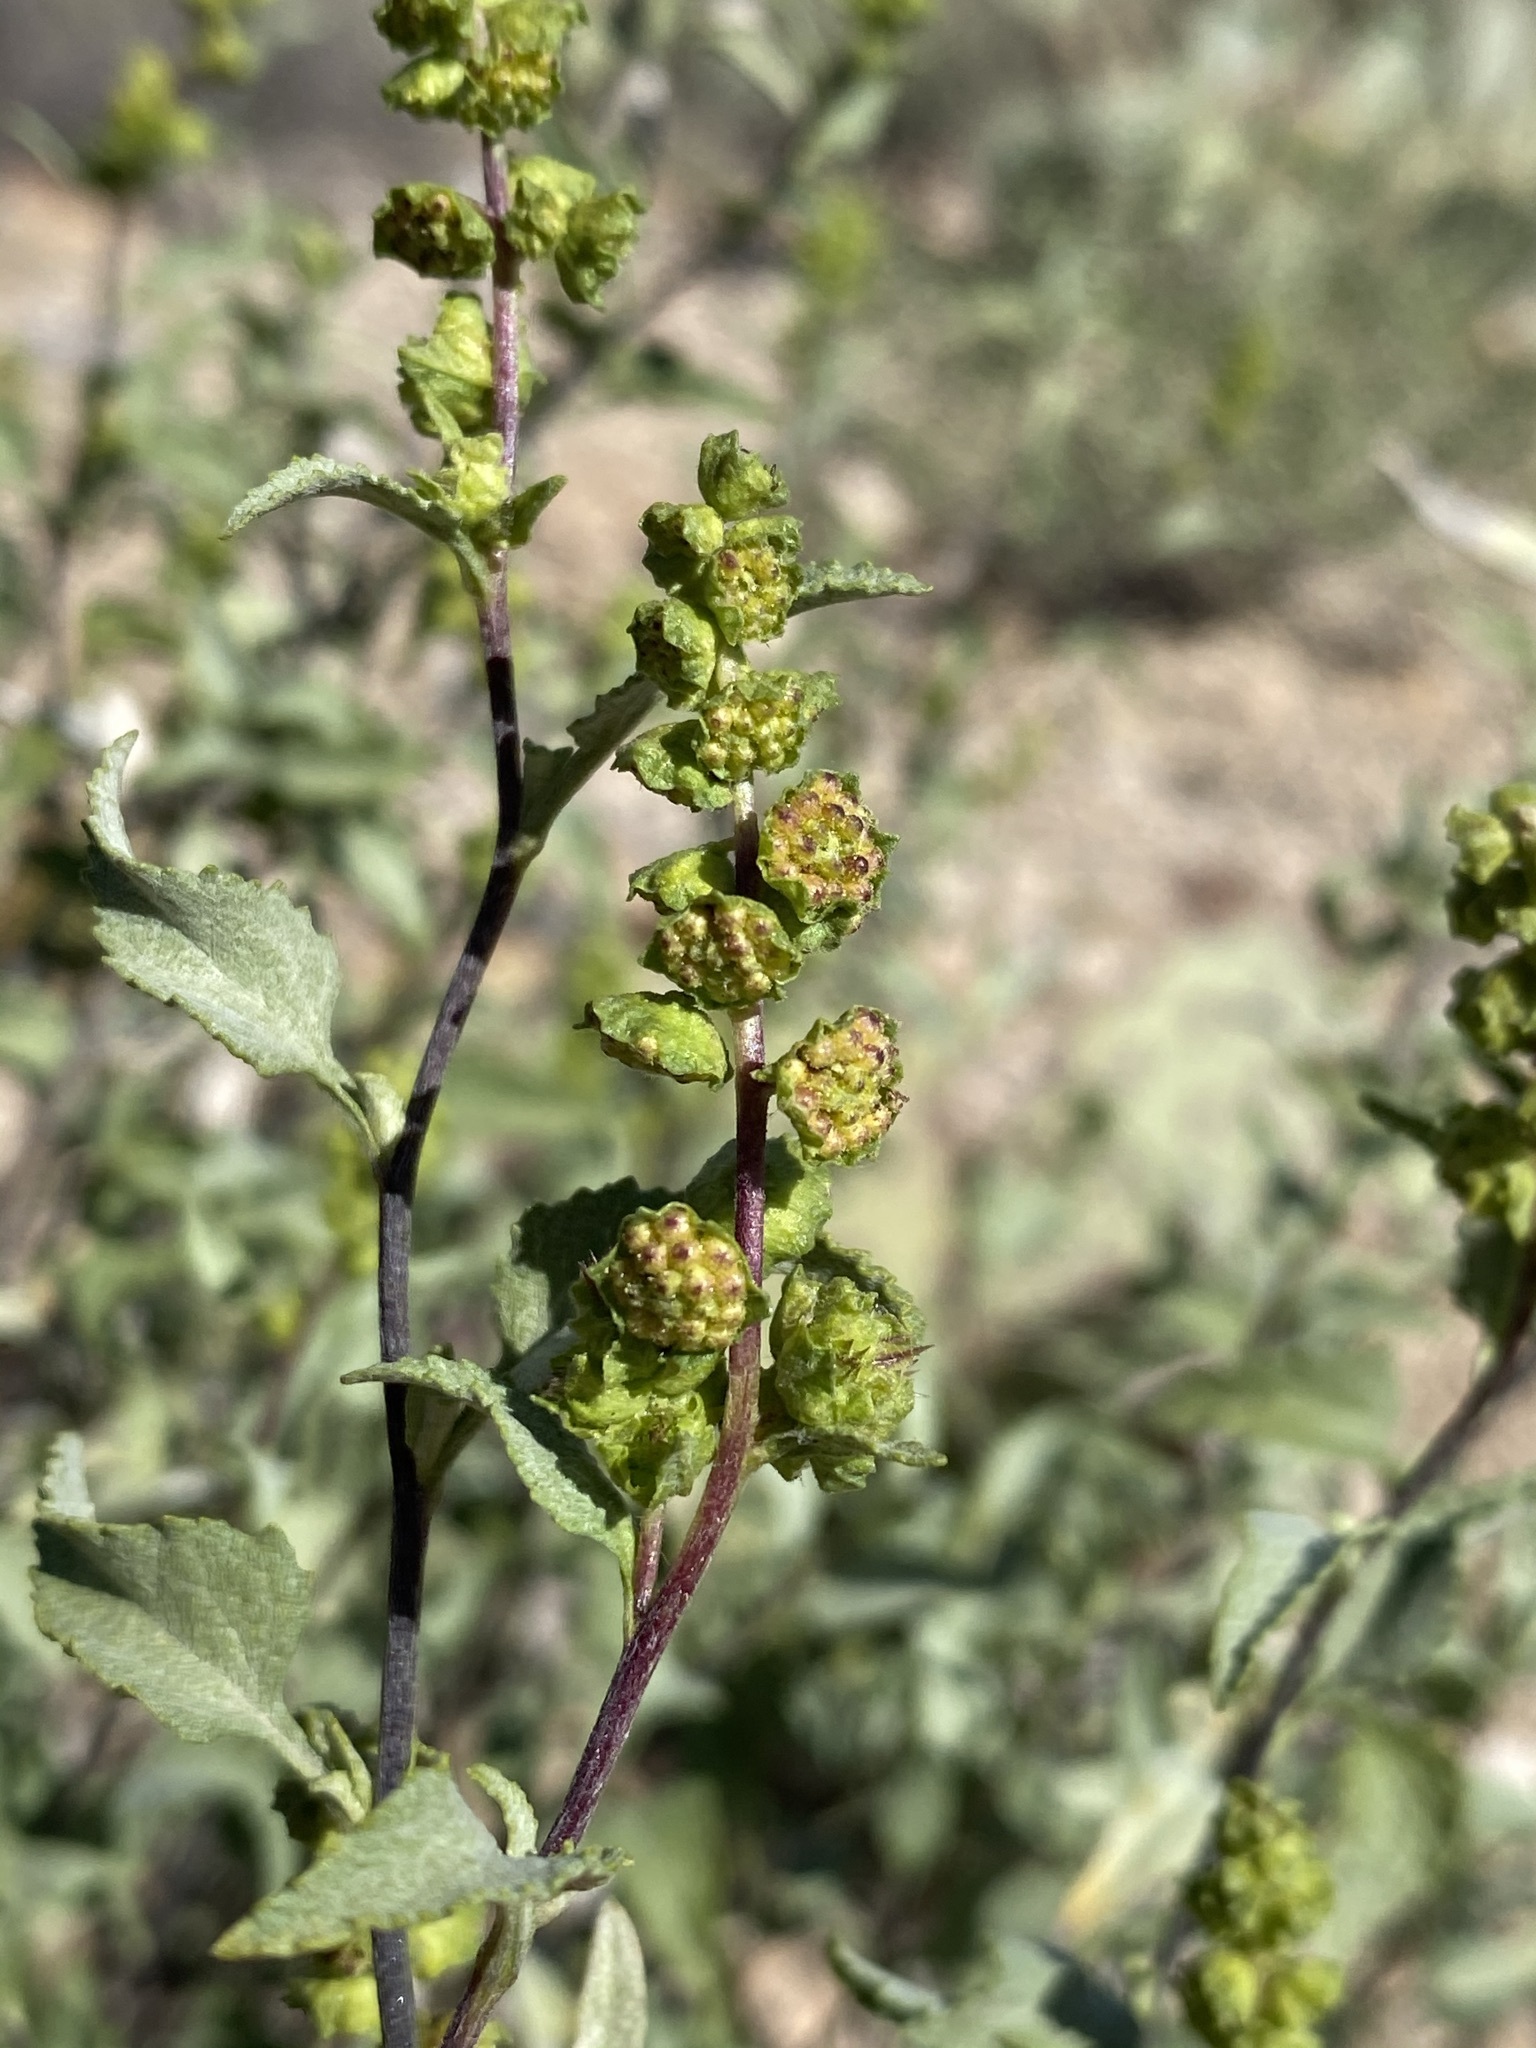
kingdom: Plantae
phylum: Tracheophyta
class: Magnoliopsida
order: Asterales
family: Asteraceae
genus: Ambrosia
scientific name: Ambrosia deltoidea
